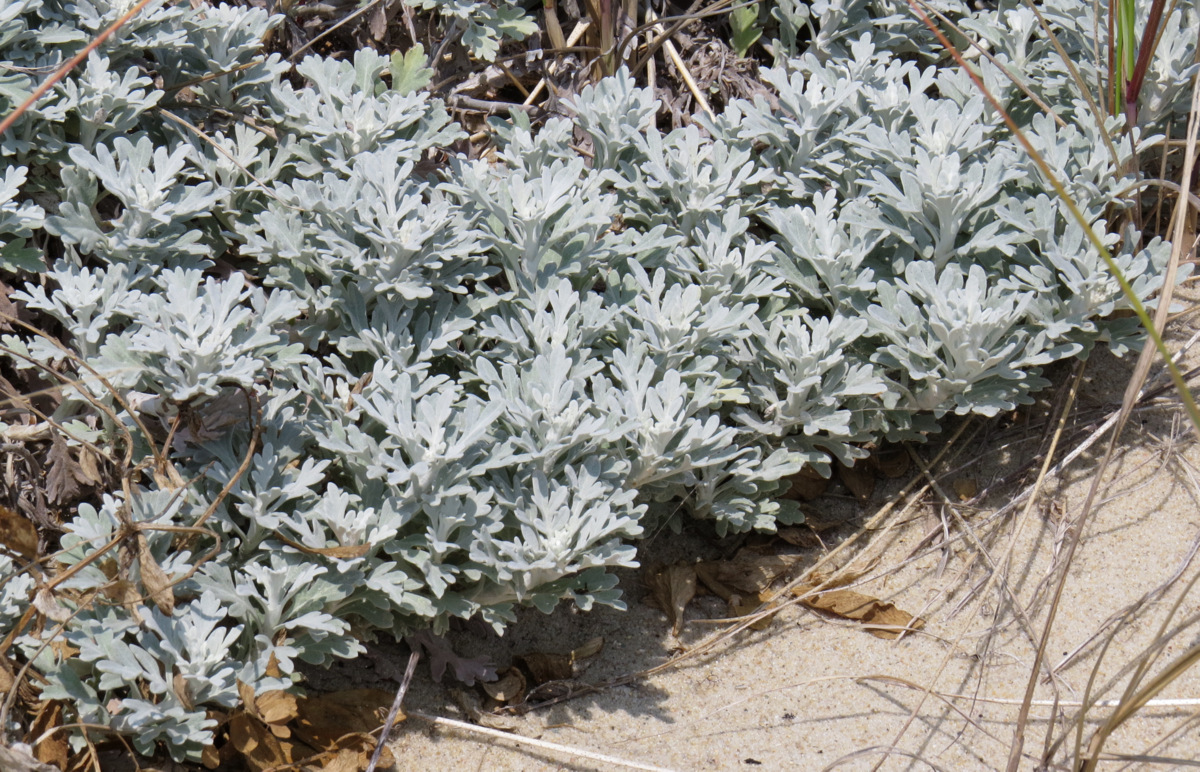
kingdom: Plantae
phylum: Tracheophyta
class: Magnoliopsida
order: Asterales
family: Asteraceae
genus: Artemisia
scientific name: Artemisia stelleriana
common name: Beach wormwood
